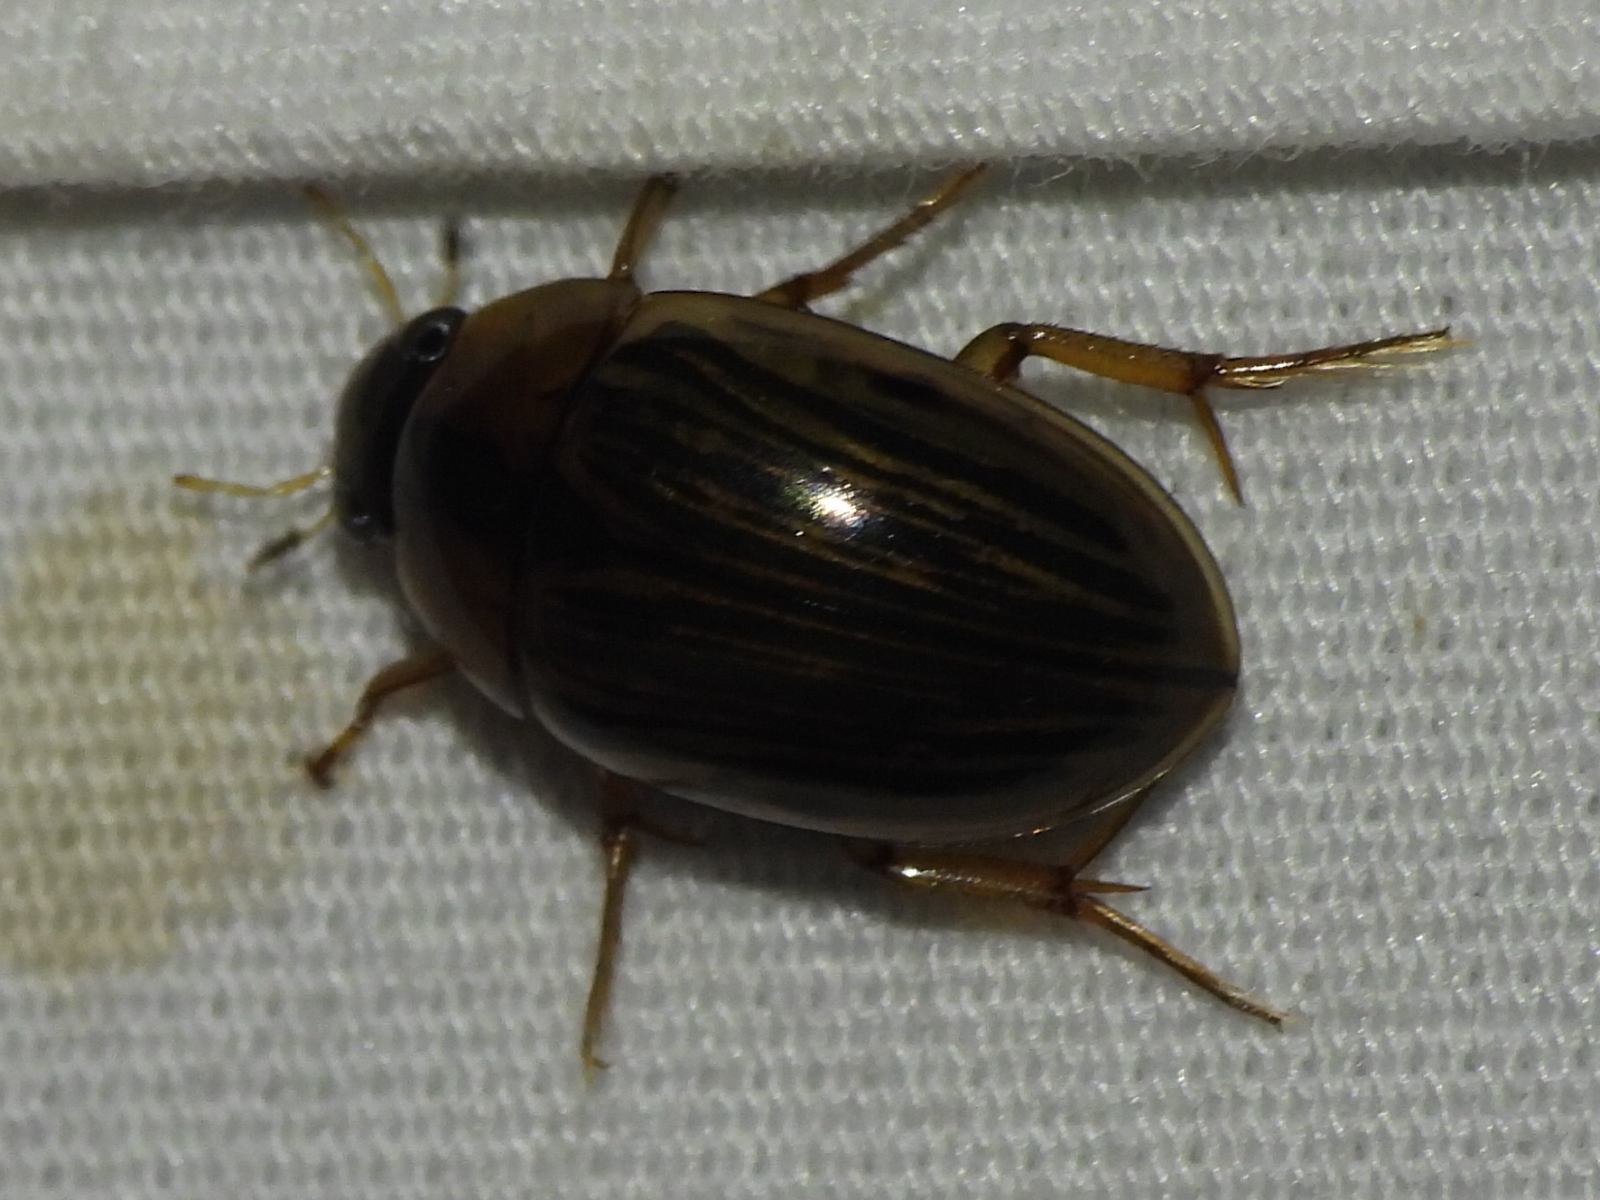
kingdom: Animalia
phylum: Arthropoda
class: Insecta
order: Coleoptera
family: Hydrophilidae
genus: Tropisternus
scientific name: Tropisternus collaris
